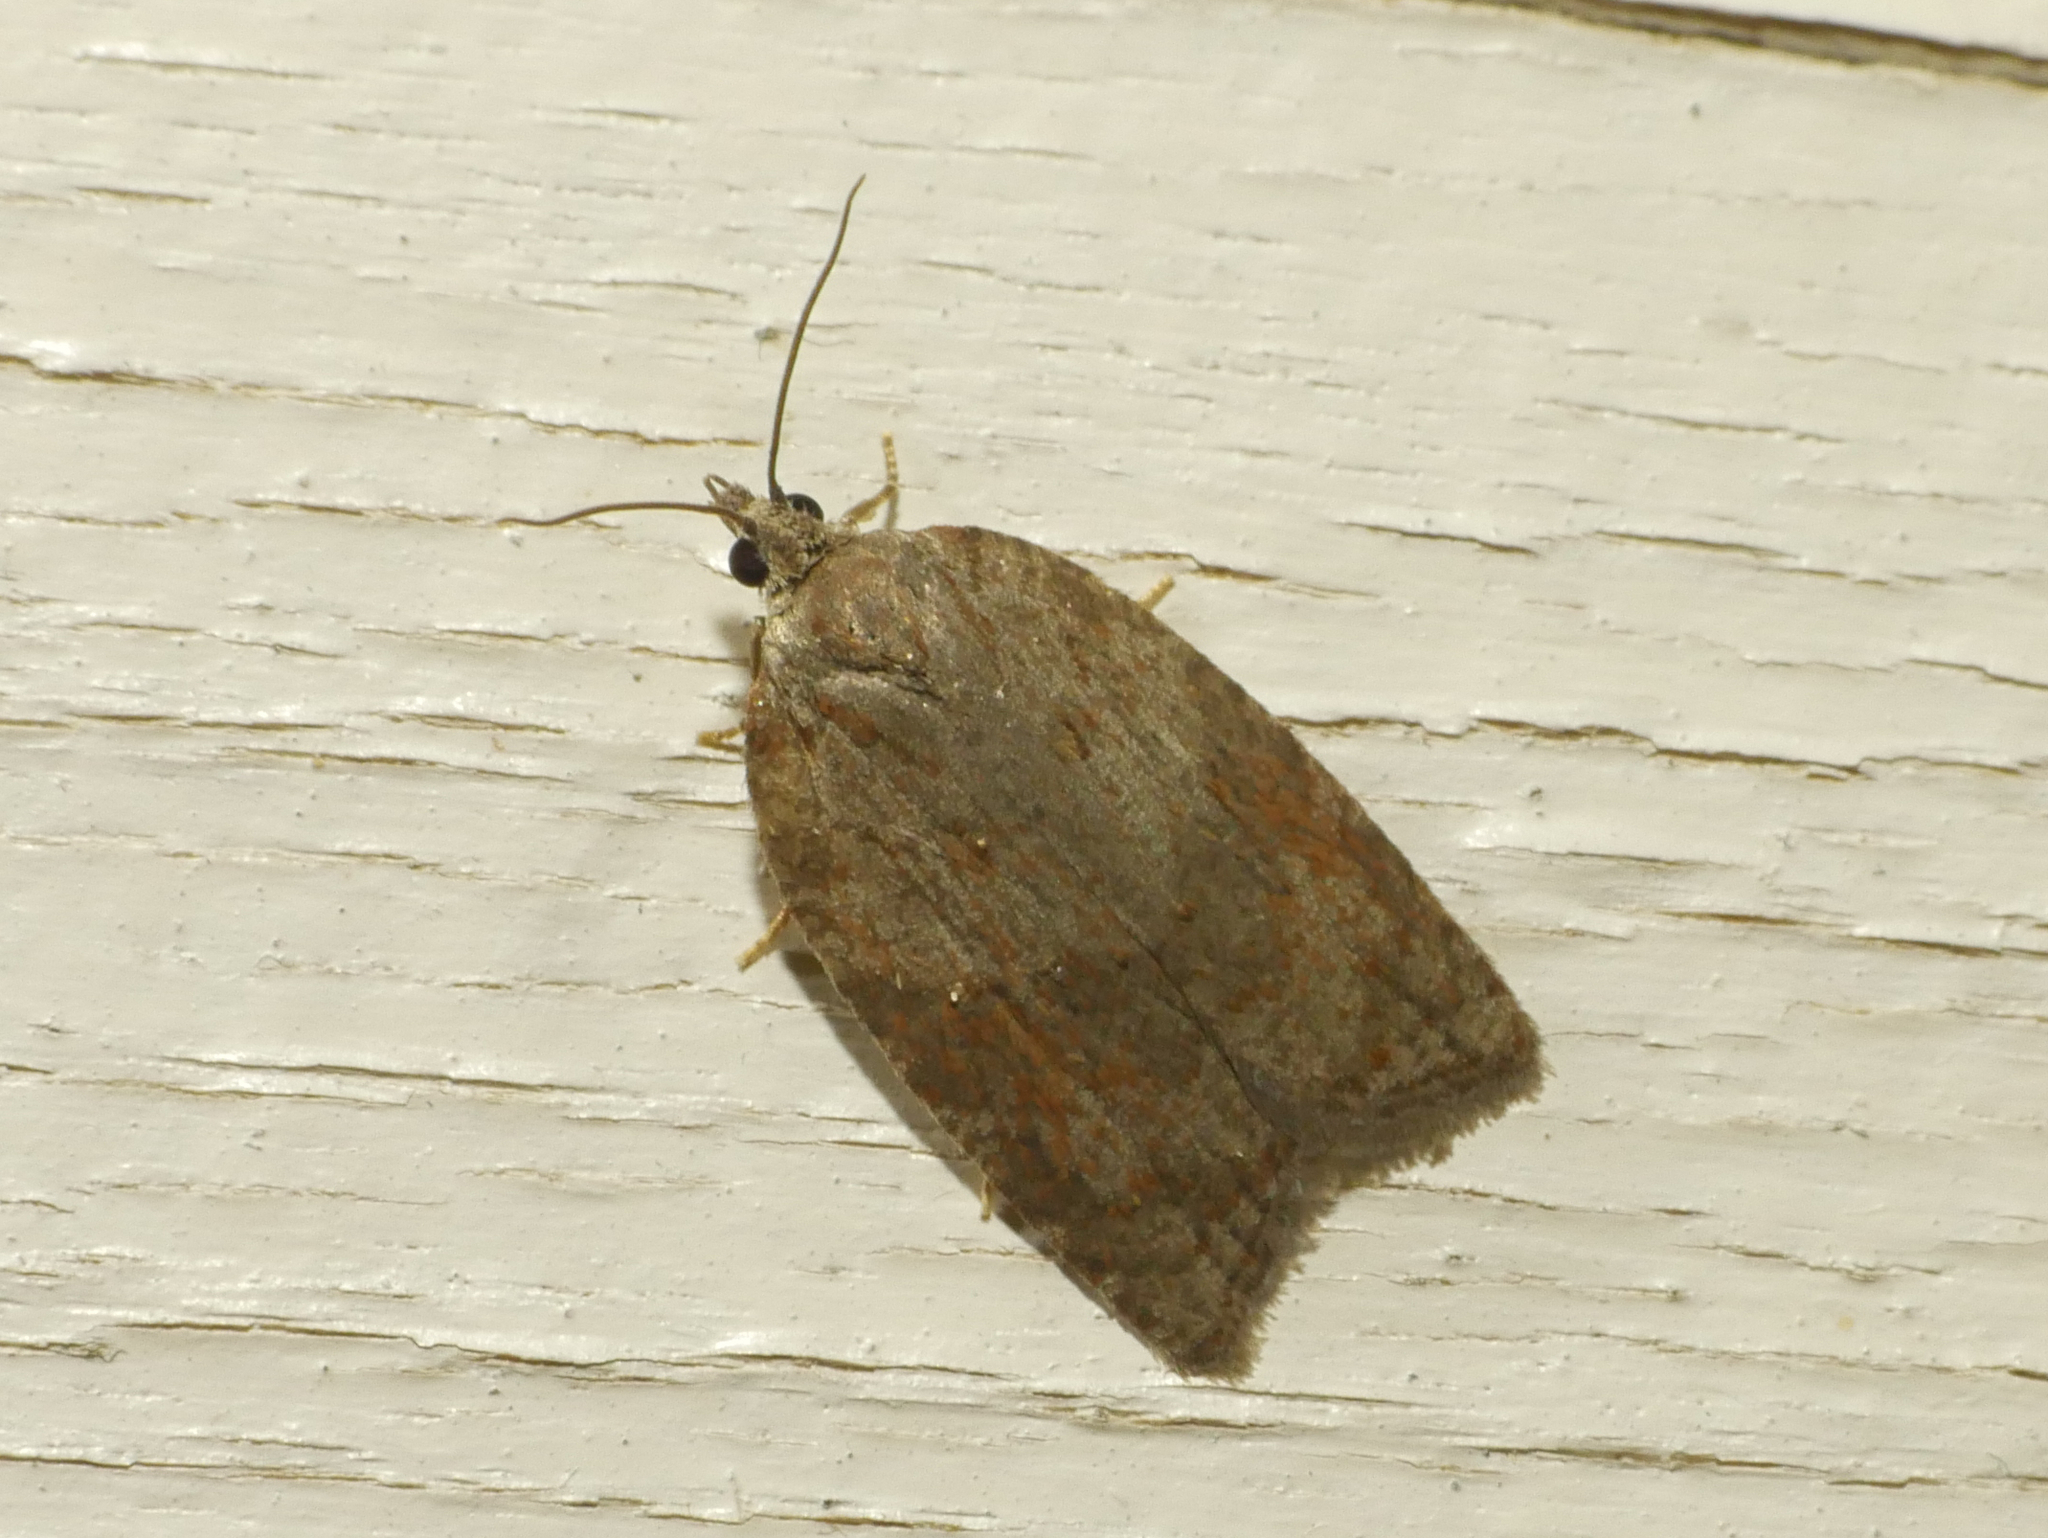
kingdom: Animalia
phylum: Arthropoda
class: Insecta
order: Lepidoptera
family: Tortricidae
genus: Acleris
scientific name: Acleris sparsana
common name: Ashy button
